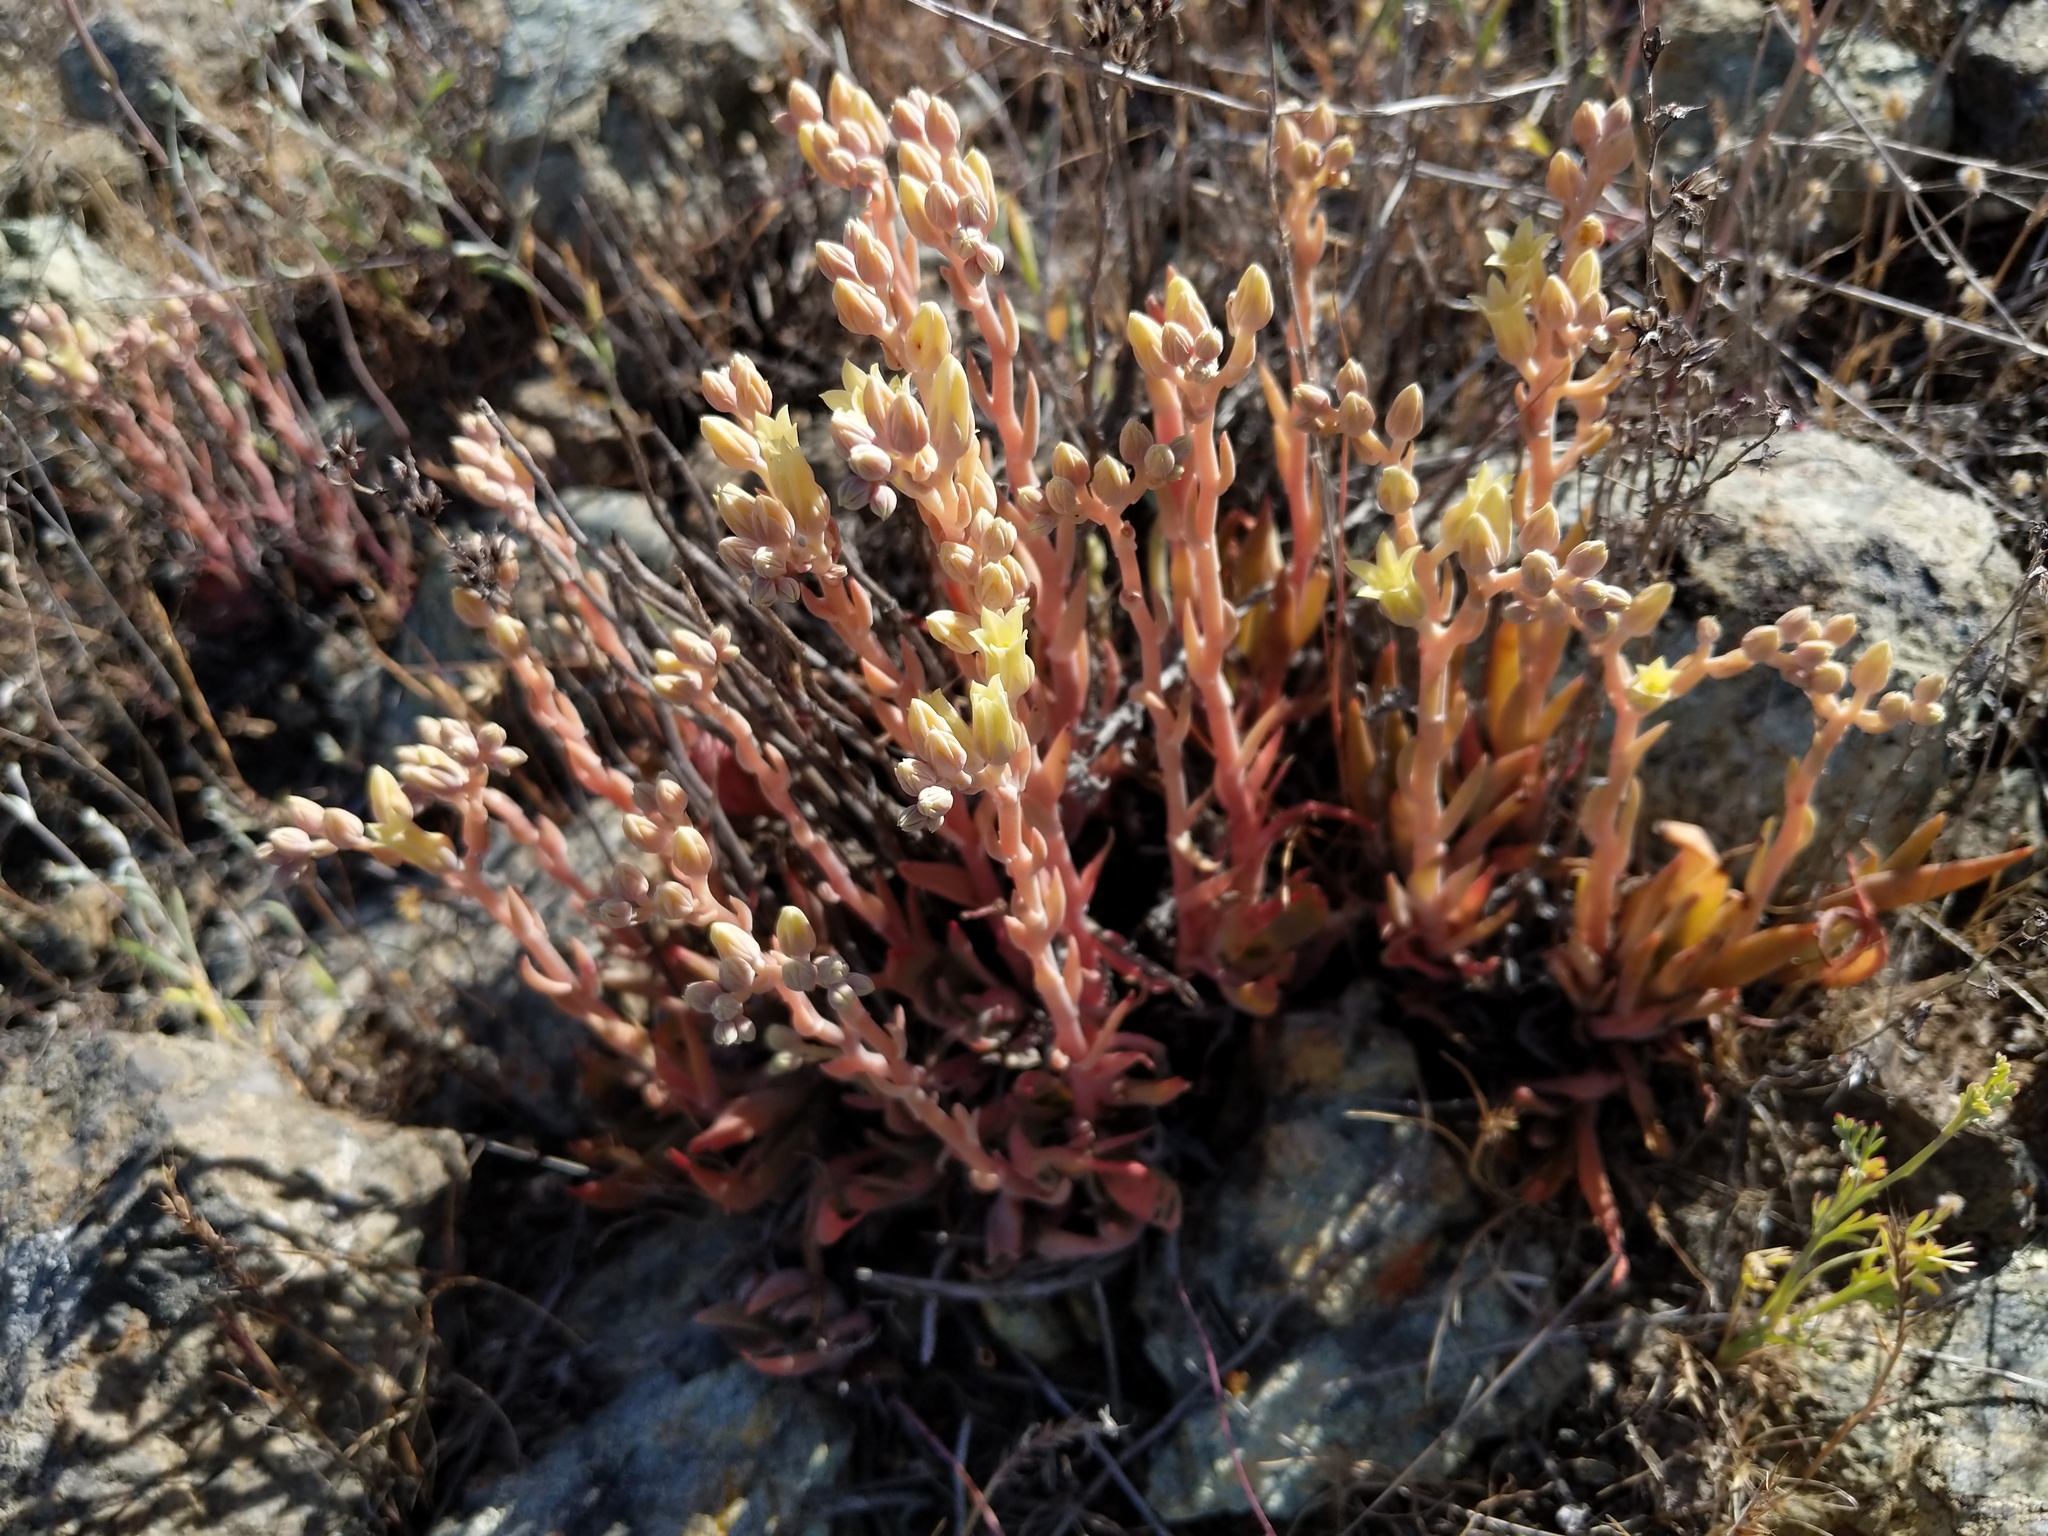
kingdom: Plantae
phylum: Tracheophyta
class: Magnoliopsida
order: Saxifragales
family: Crassulaceae
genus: Dudleya
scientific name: Dudleya abramsii
